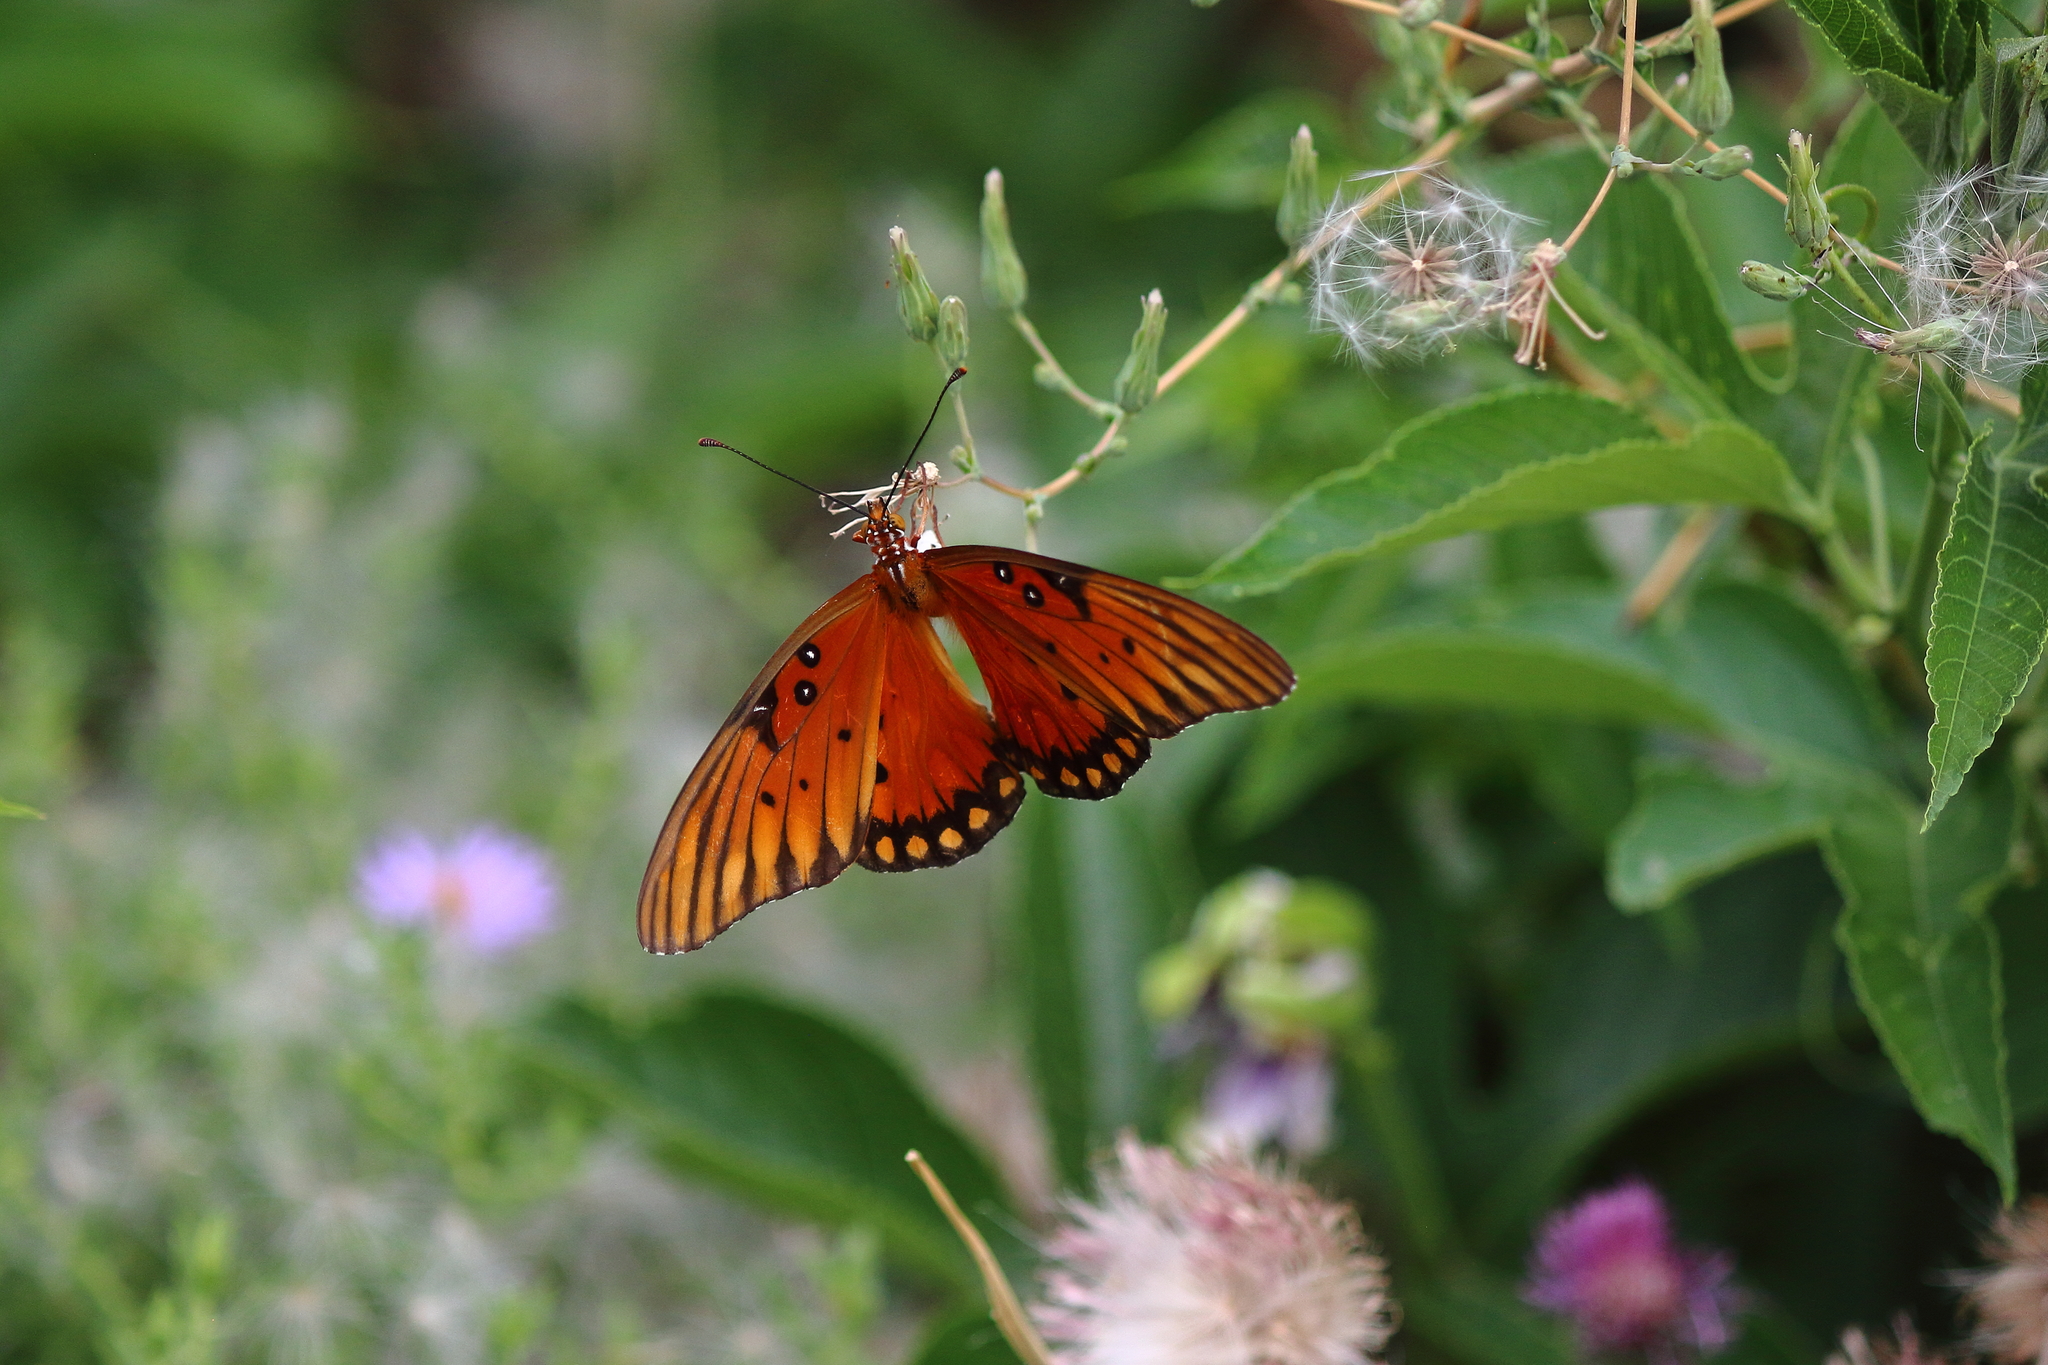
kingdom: Animalia
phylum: Arthropoda
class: Insecta
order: Lepidoptera
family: Nymphalidae
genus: Dione
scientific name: Dione vanillae
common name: Gulf fritillary
